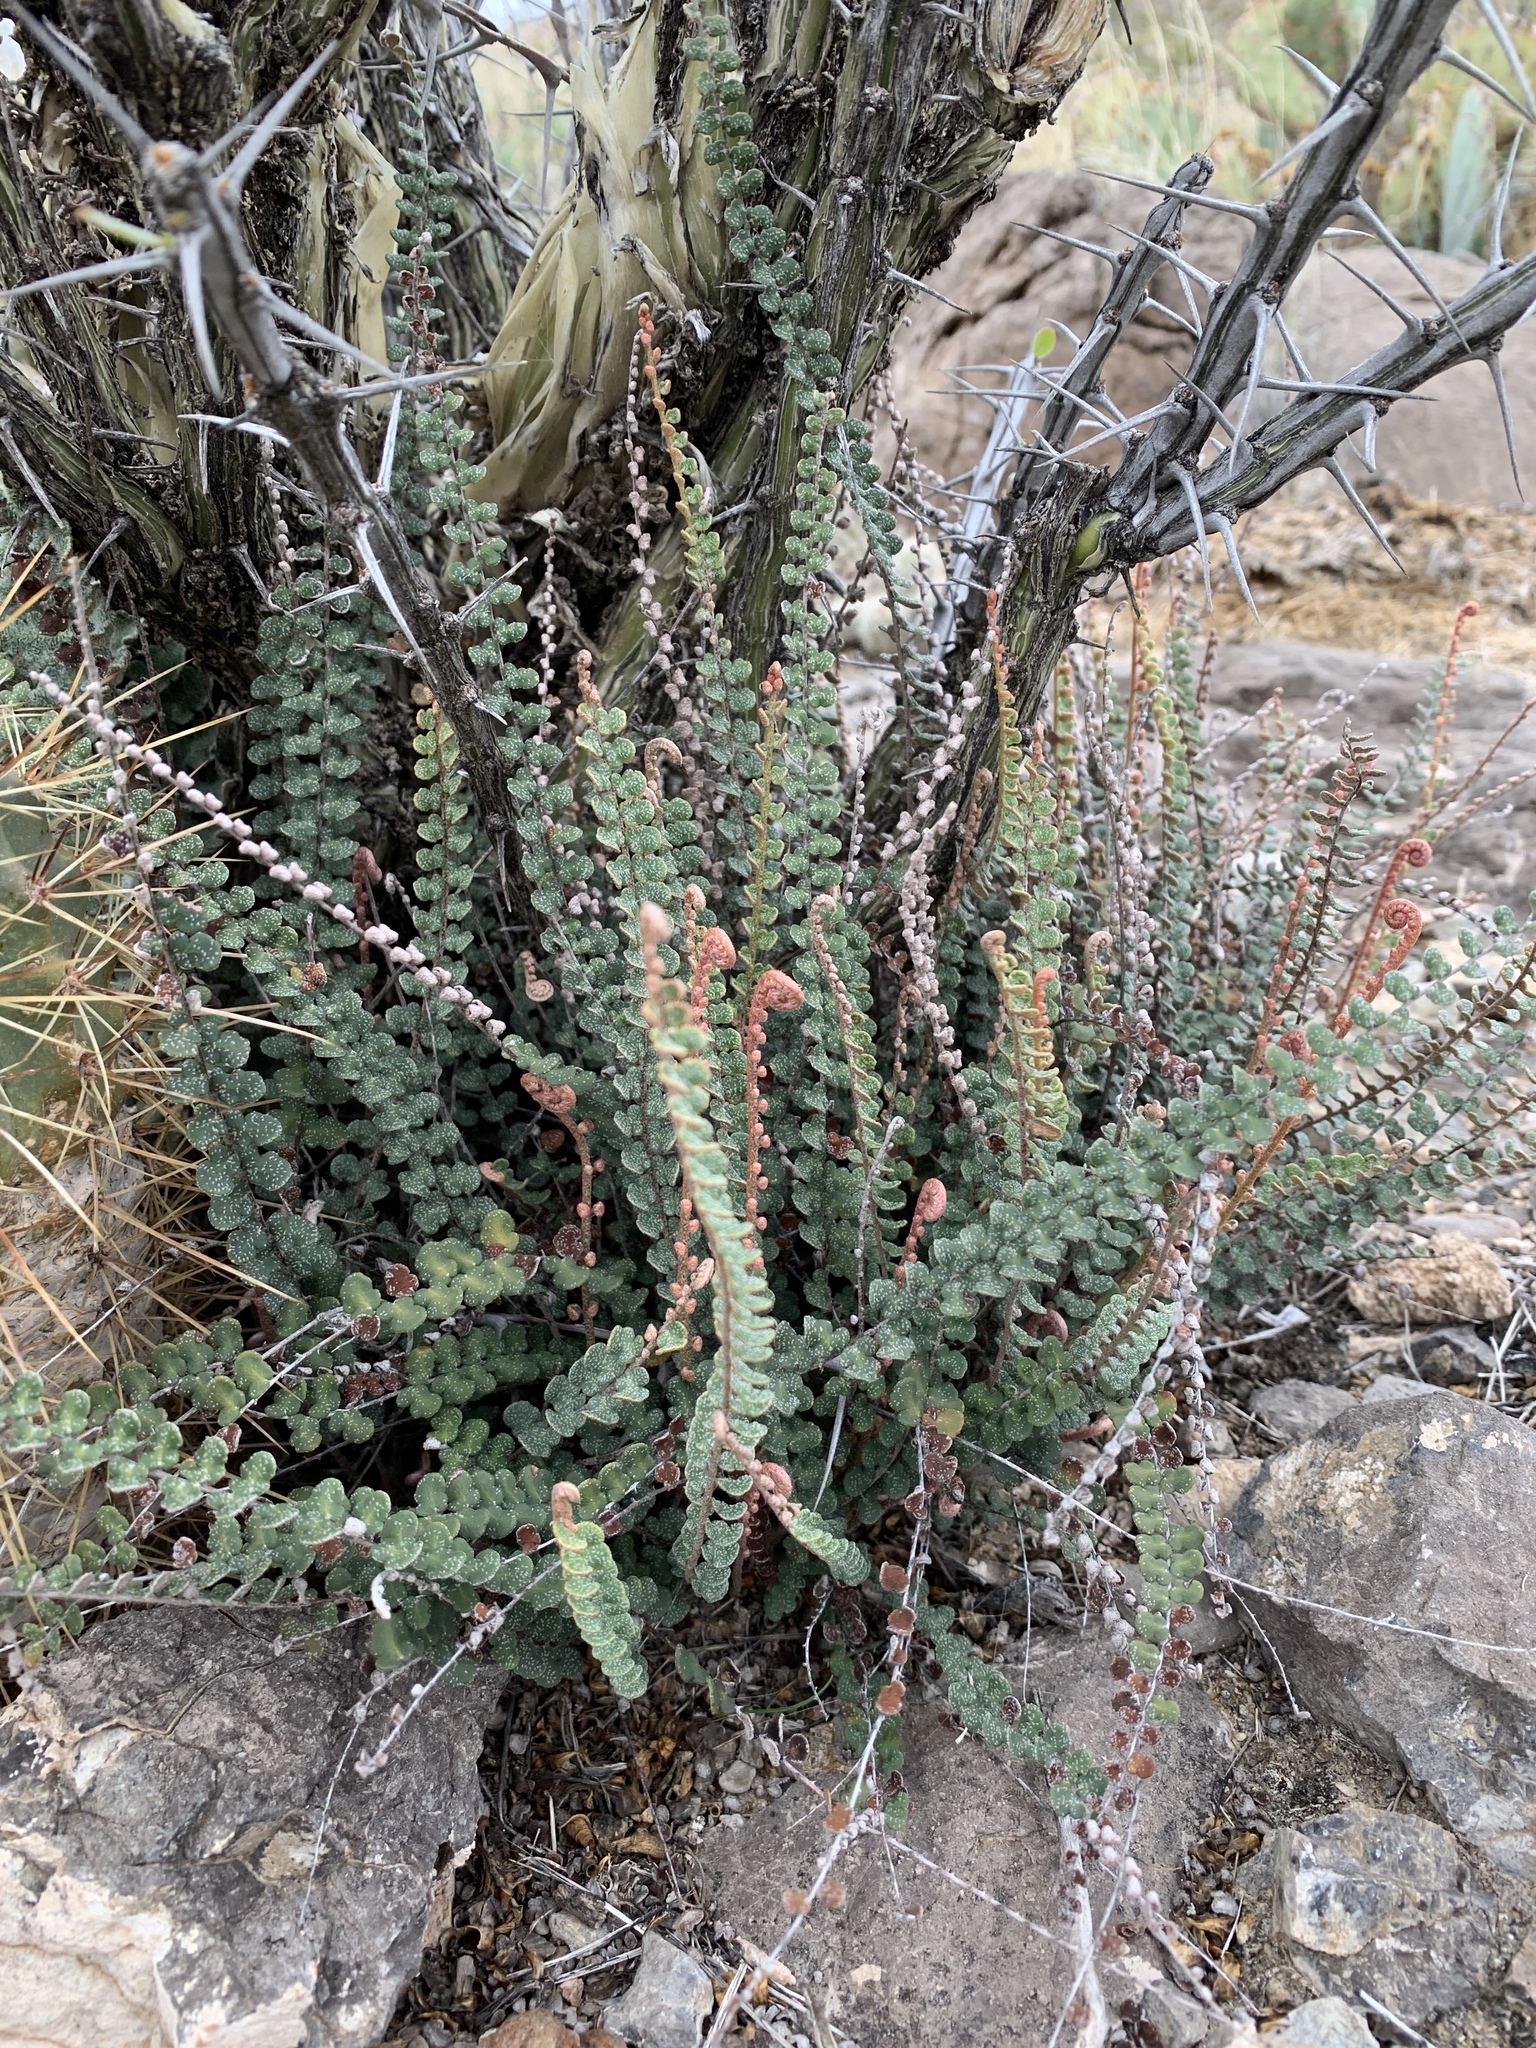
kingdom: Plantae
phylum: Tracheophyta
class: Polypodiopsida
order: Polypodiales
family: Pteridaceae
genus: Astrolepis
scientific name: Astrolepis cochisensis
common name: Scaly cloak fern
